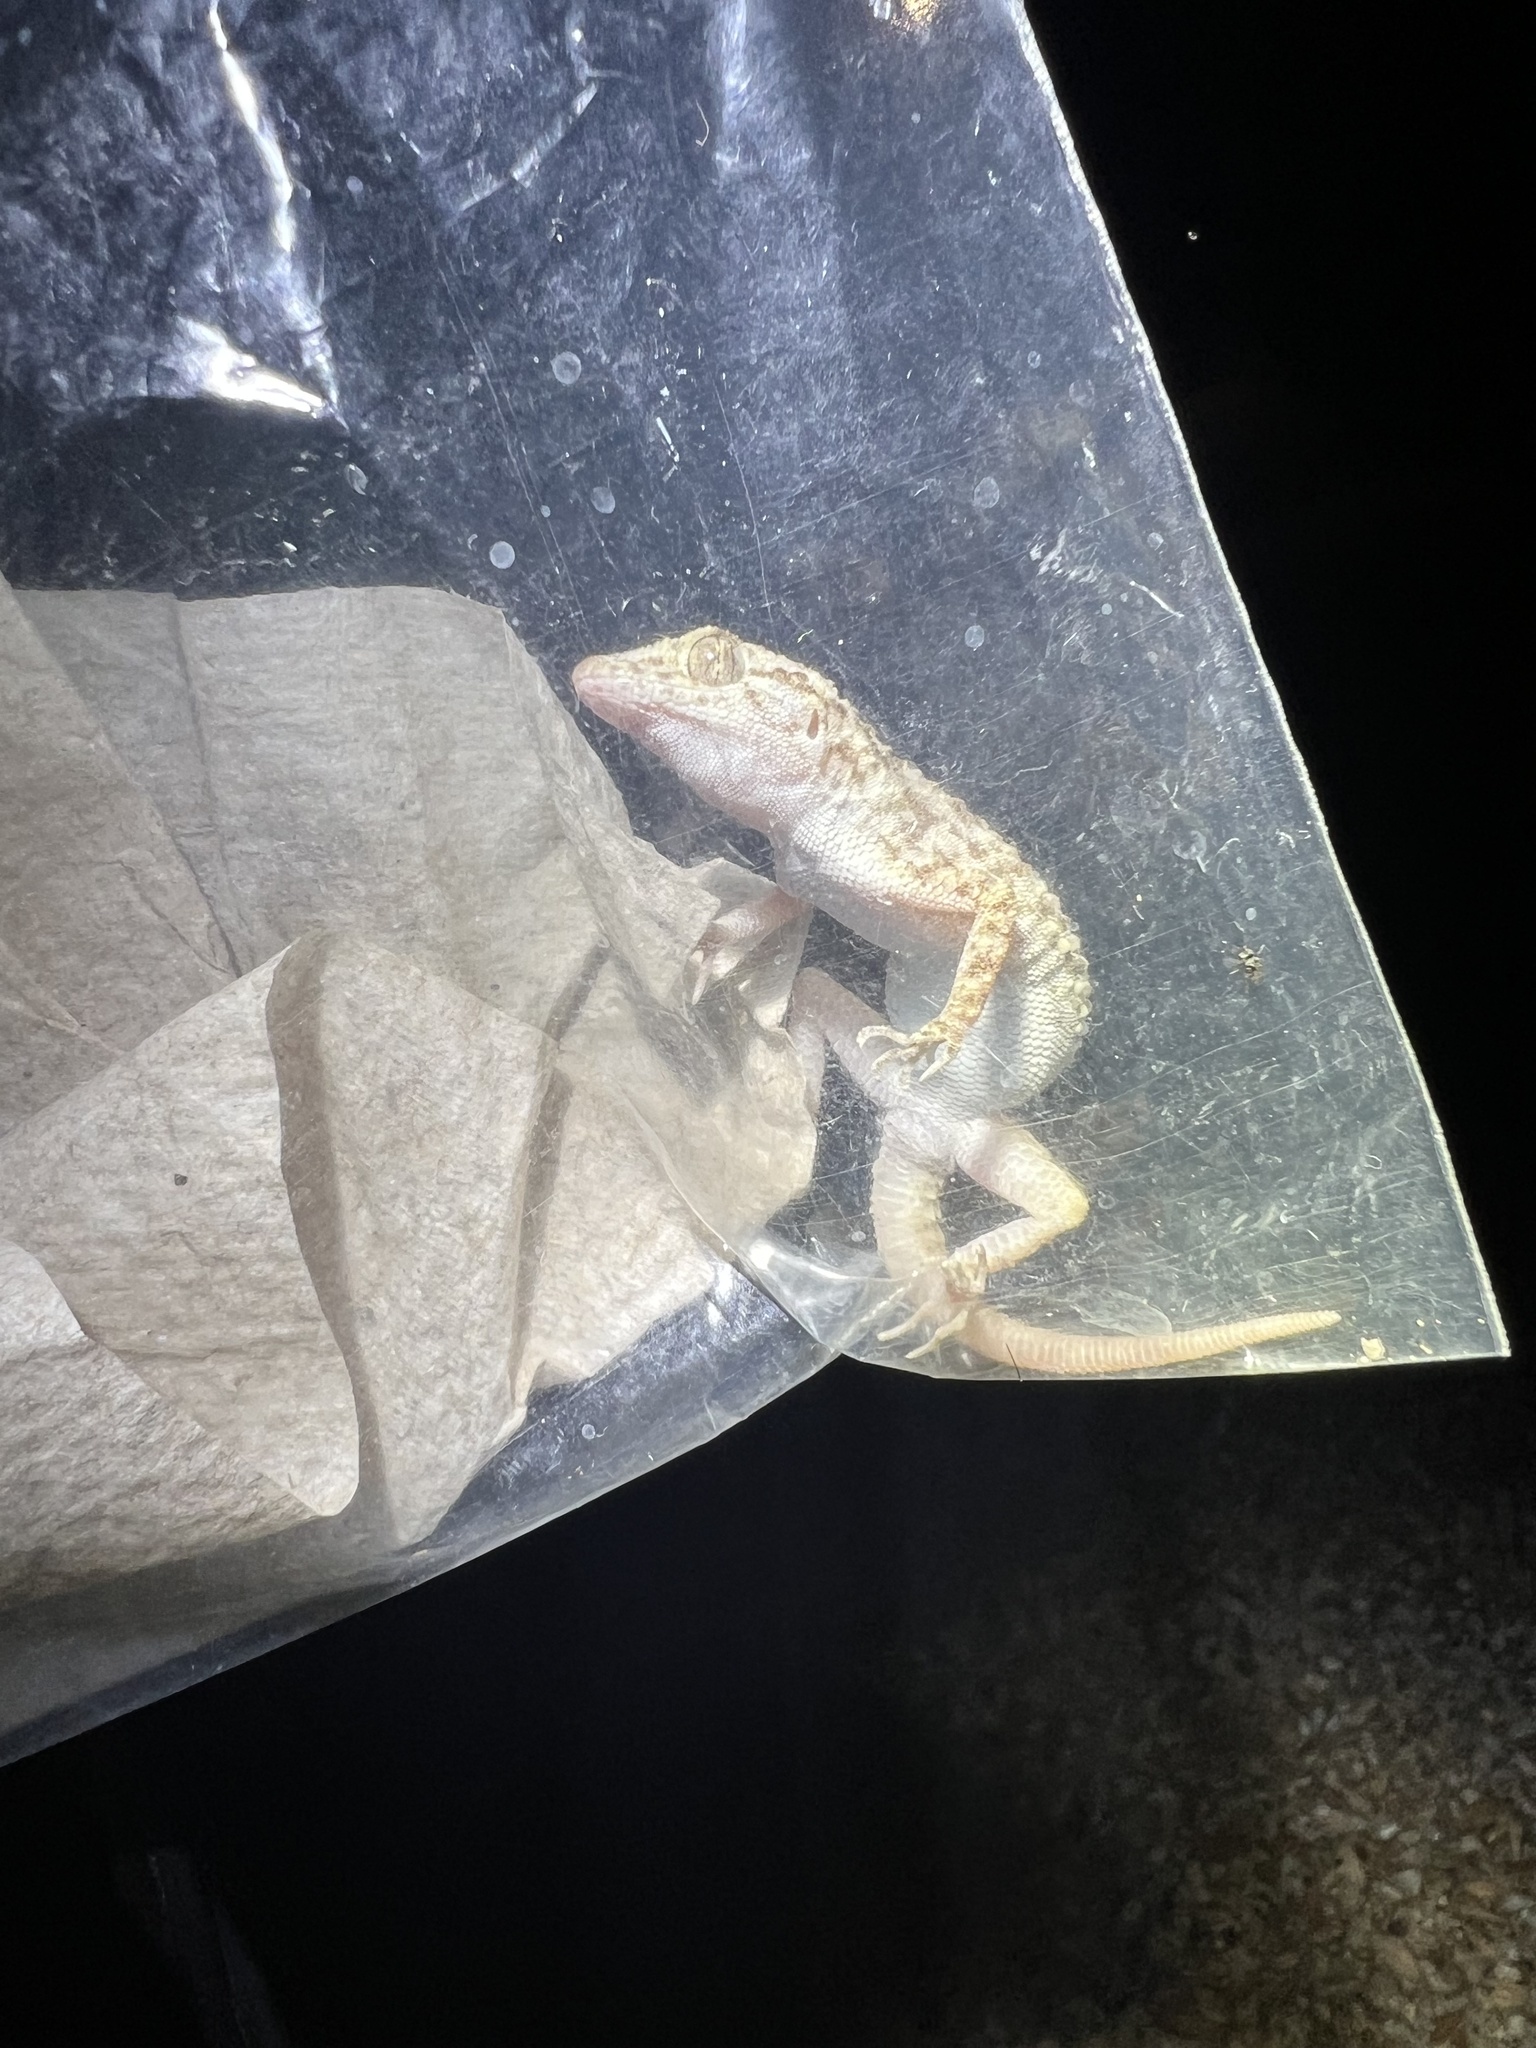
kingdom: Animalia
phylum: Chordata
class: Squamata
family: Gekkonidae
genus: Cyrtopodion
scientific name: Cyrtopodion scabrum
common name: Rough-tailed gecko
